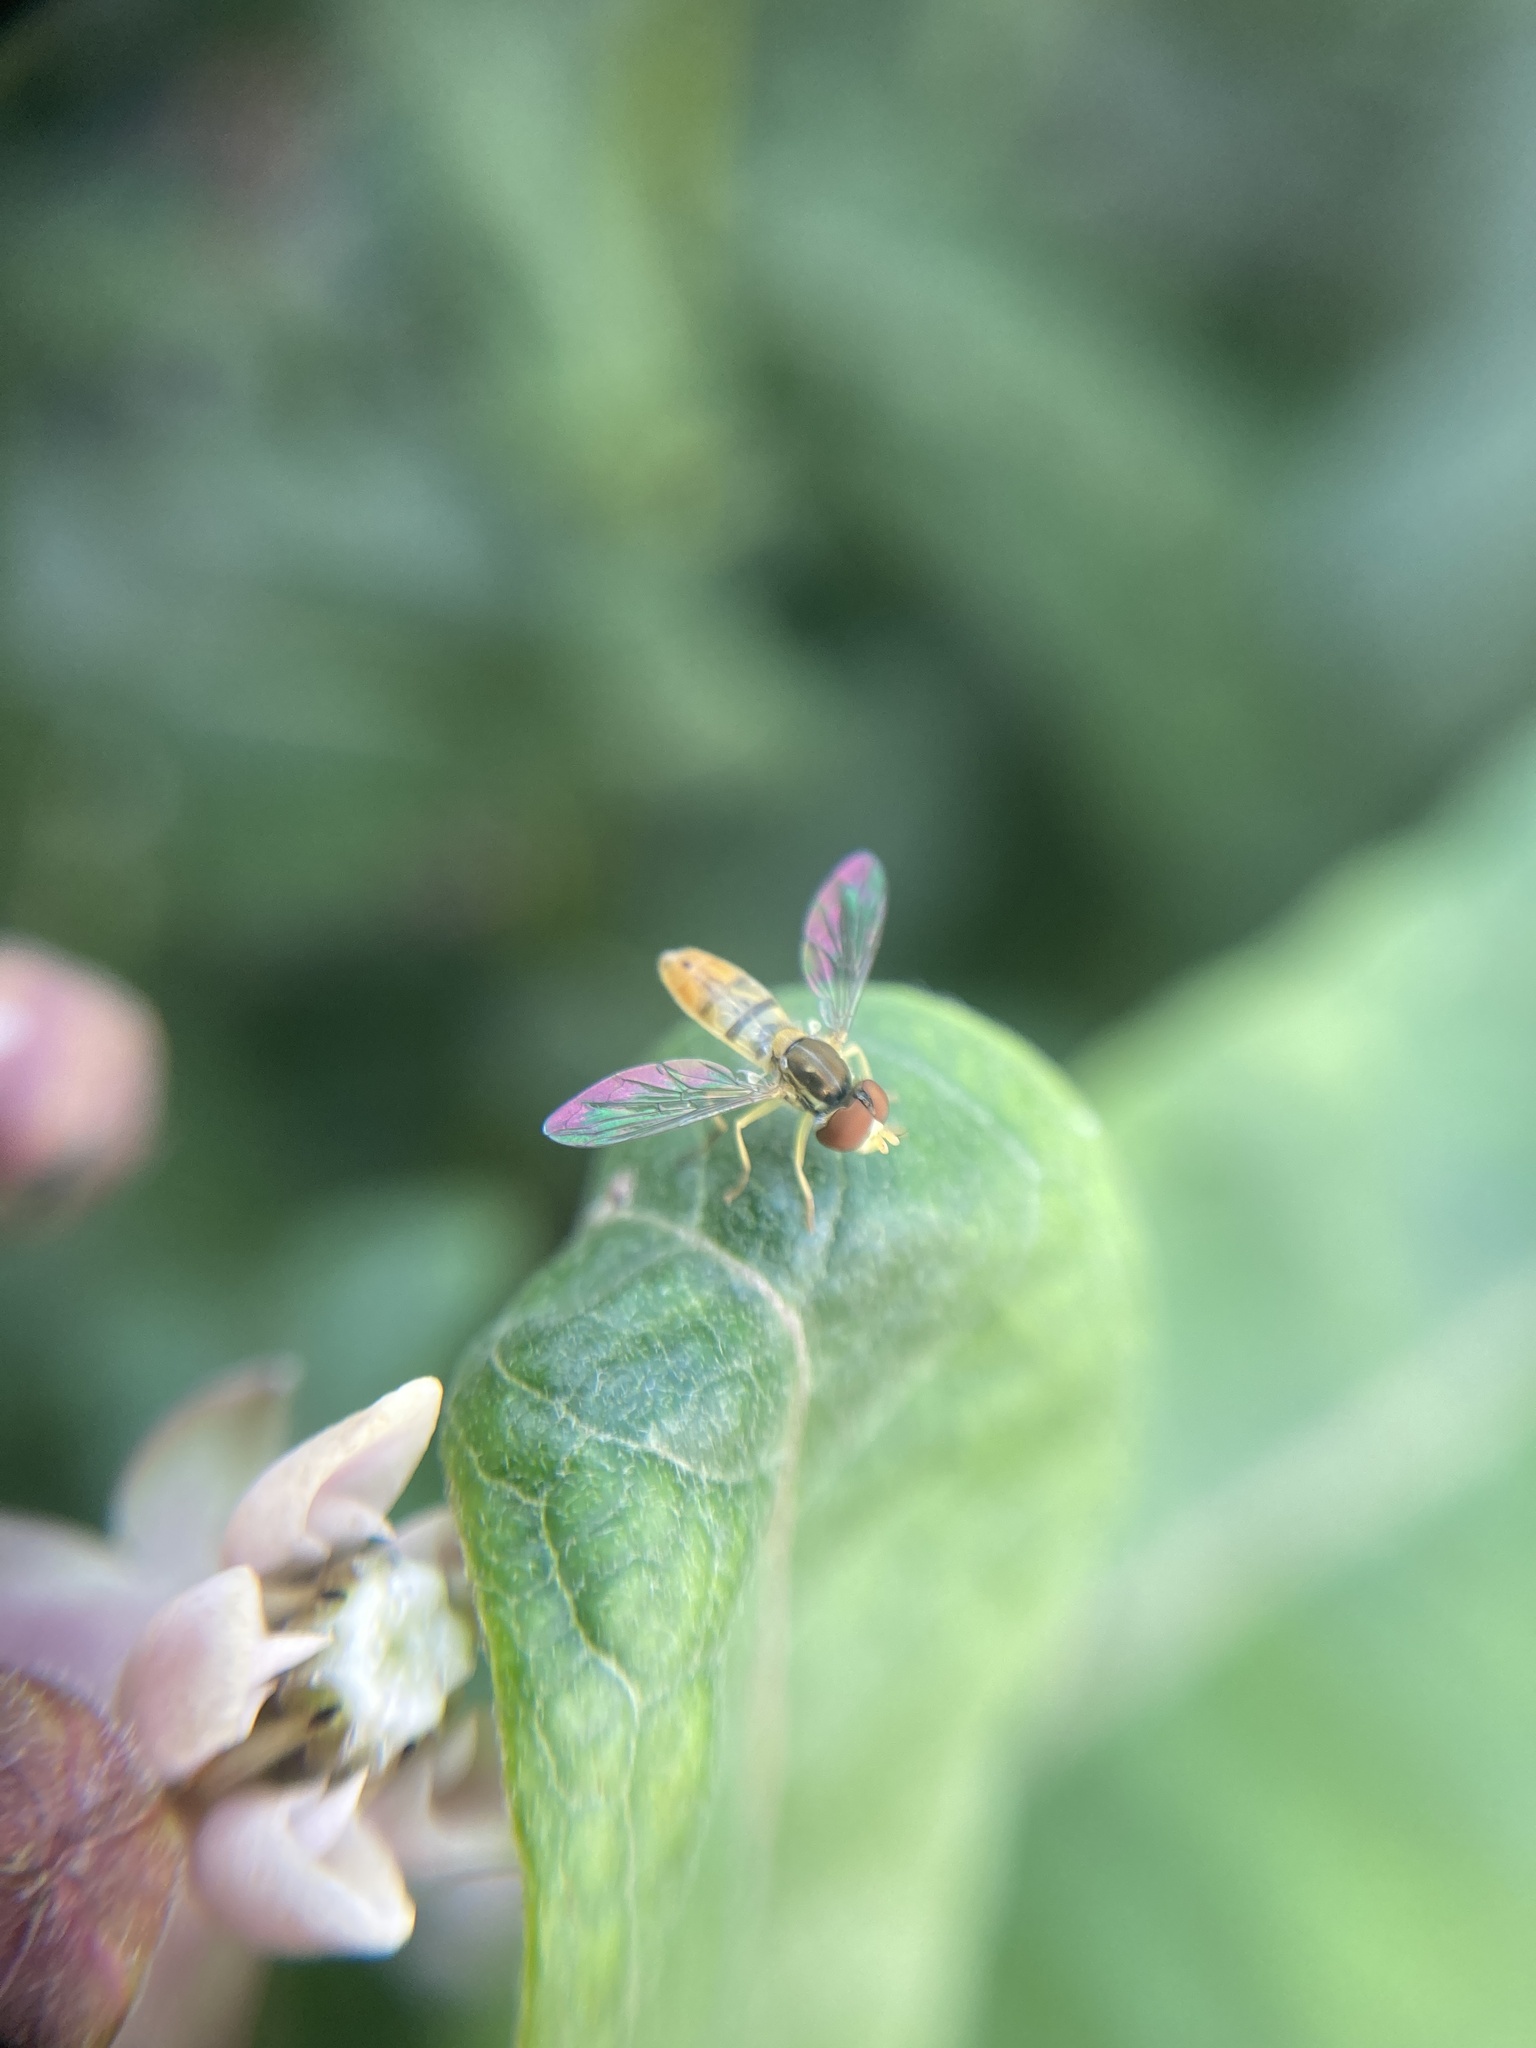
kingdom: Animalia
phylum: Arthropoda
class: Insecta
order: Diptera
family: Syrphidae
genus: Toxomerus
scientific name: Toxomerus marginatus
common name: Syrphid fly
